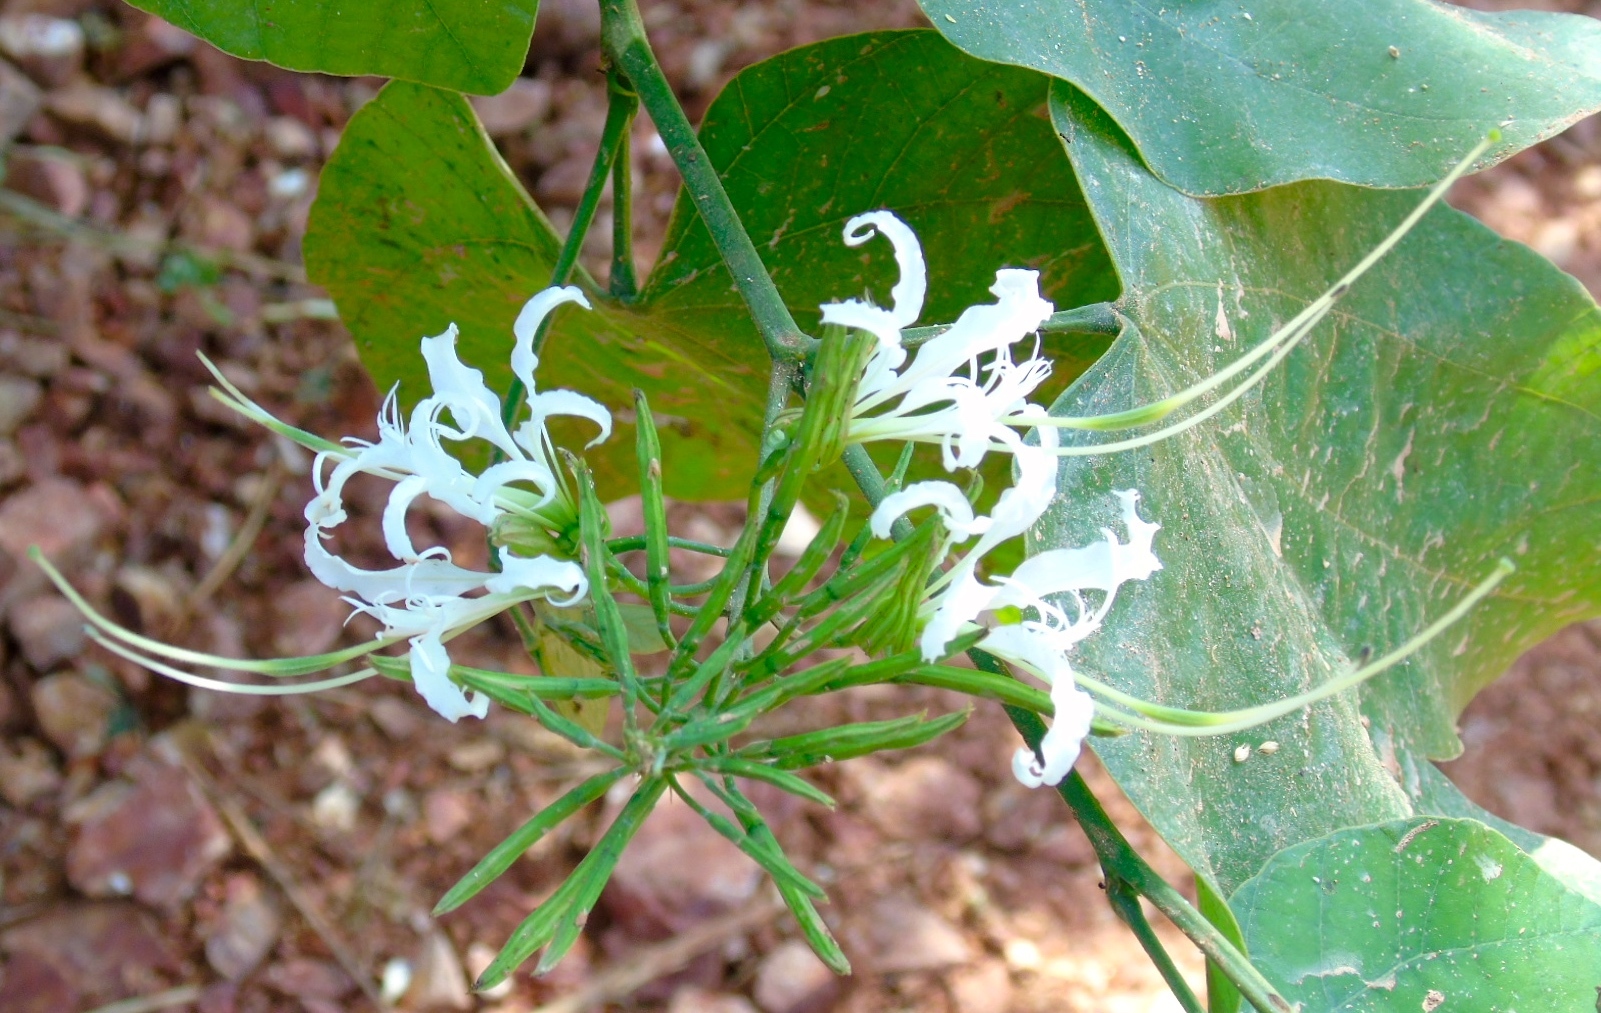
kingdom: Plantae
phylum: Tracheophyta
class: Magnoliopsida
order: Fabales
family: Fabaceae
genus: Bauhinia
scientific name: Bauhinia divaricata
